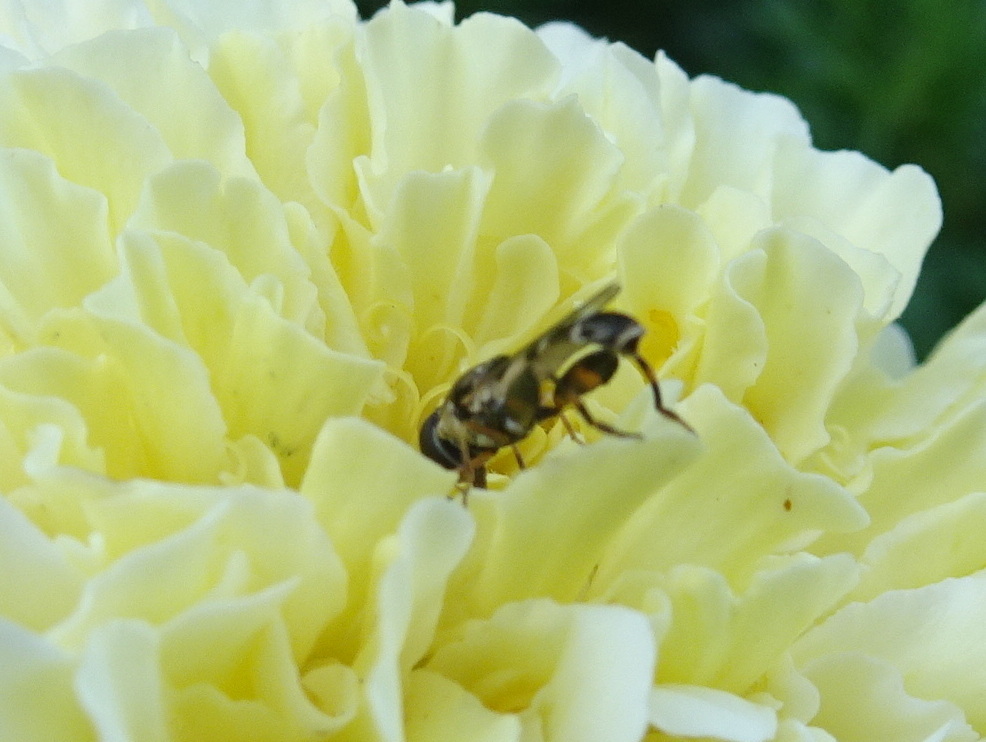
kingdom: Animalia
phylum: Arthropoda
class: Insecta
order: Diptera
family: Syrphidae
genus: Syritta
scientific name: Syritta pipiens
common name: Hover fly
